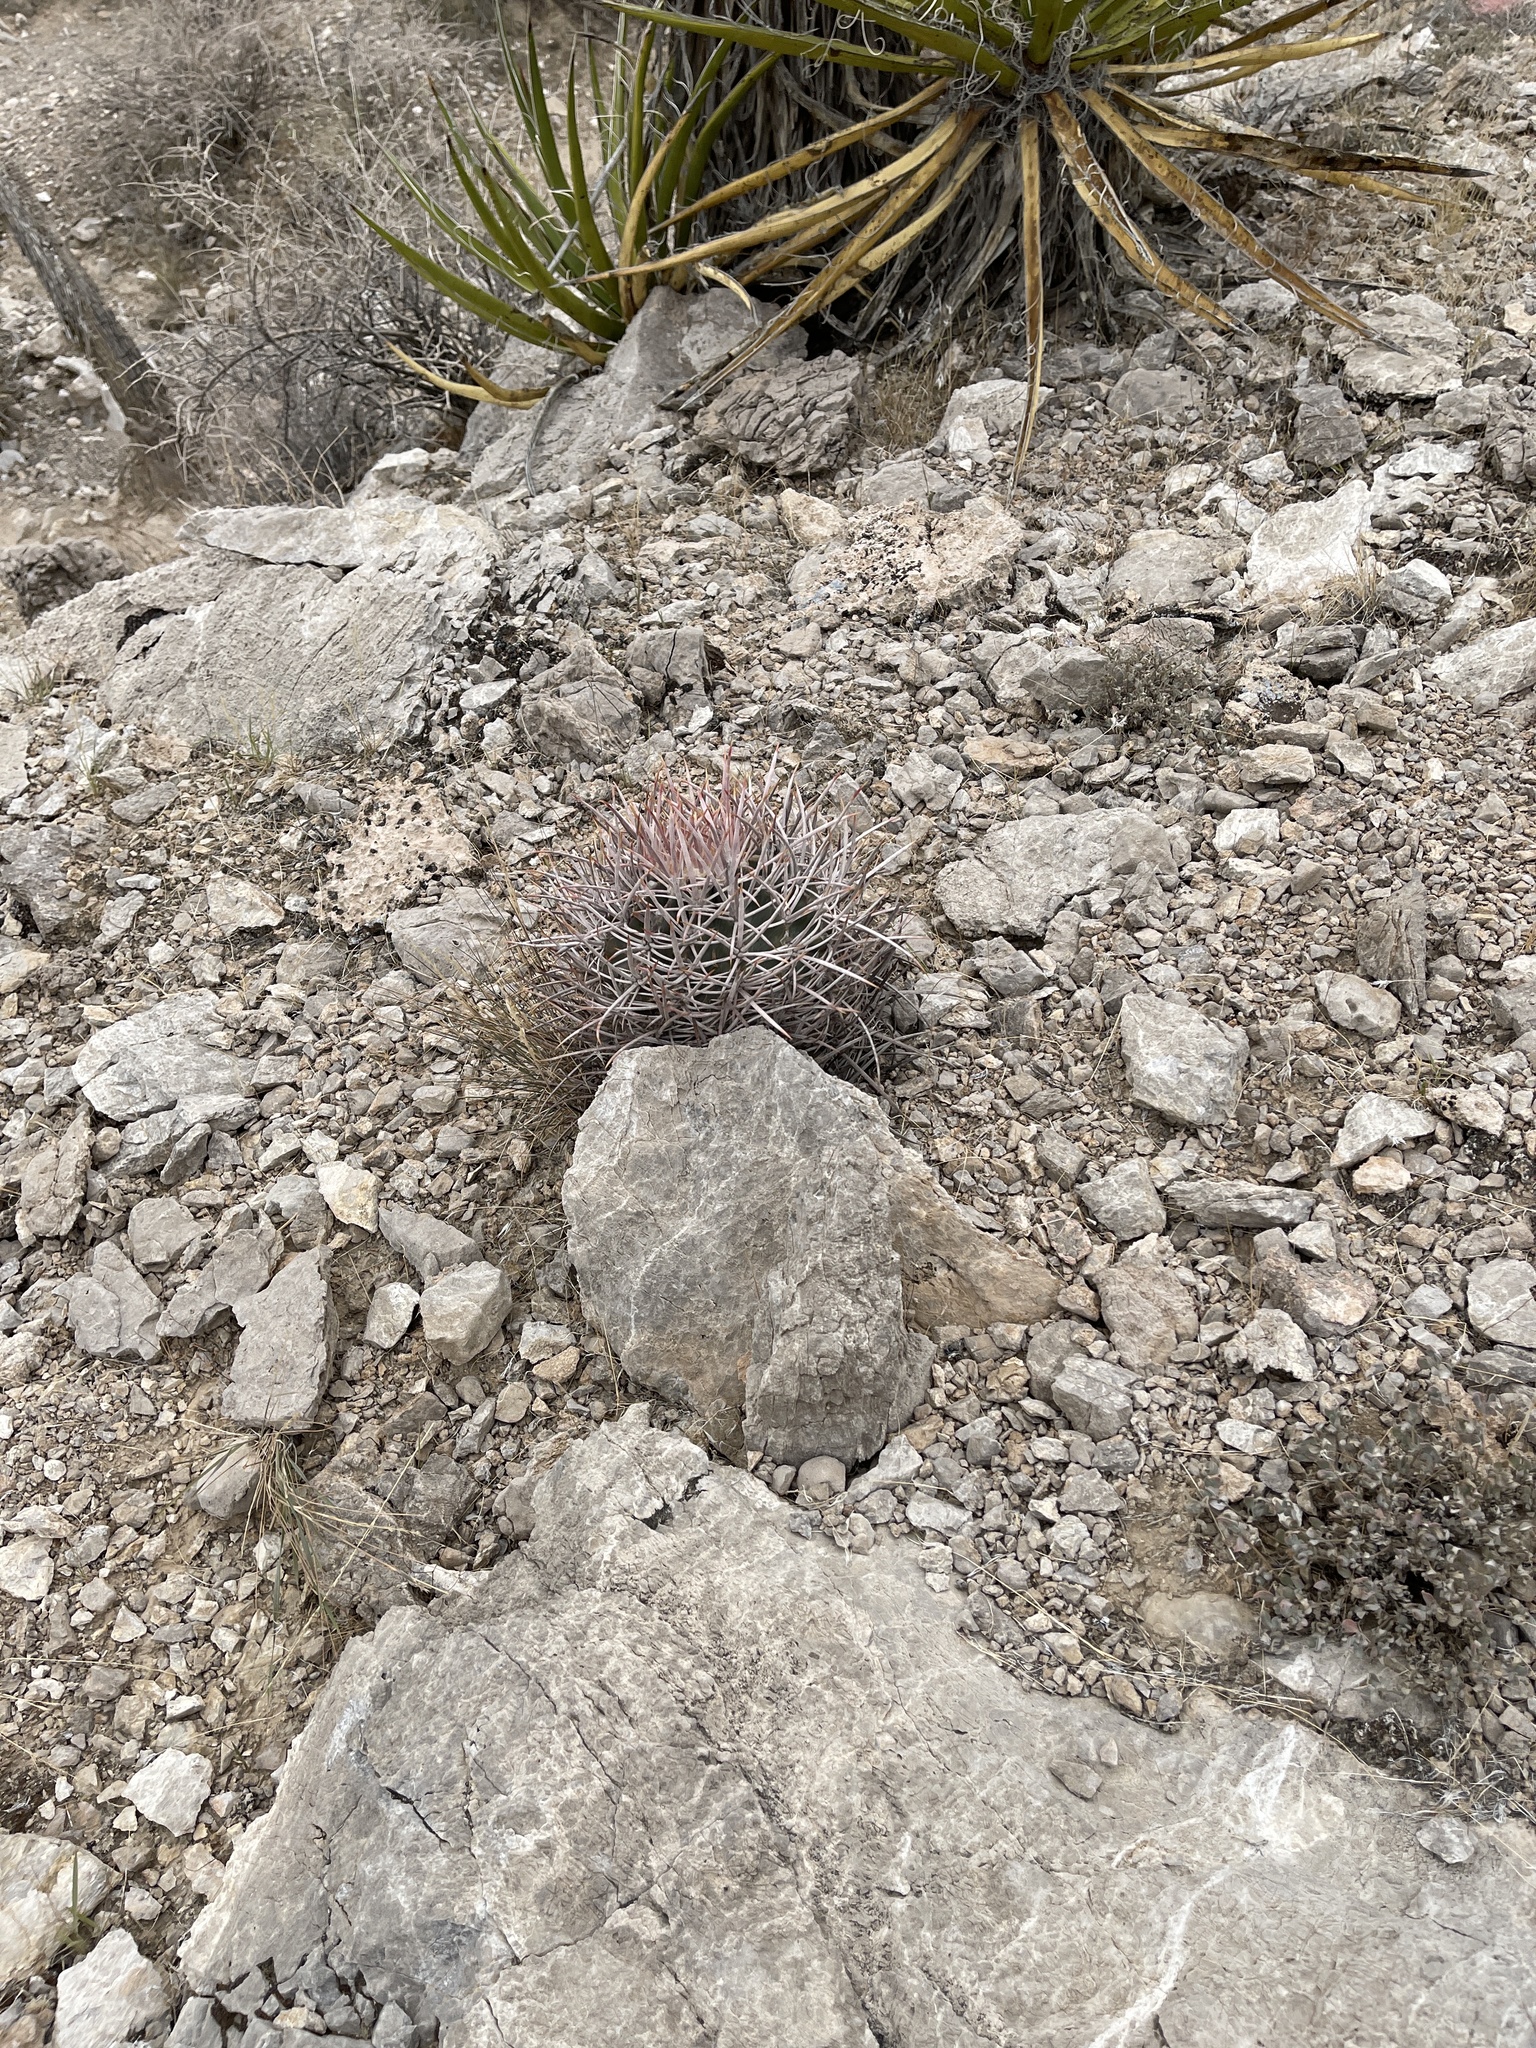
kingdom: Plantae
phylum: Tracheophyta
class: Magnoliopsida
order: Caryophyllales
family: Cactaceae
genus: Echinocactus
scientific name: Echinocactus polycephalus
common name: Cottontop cactus
